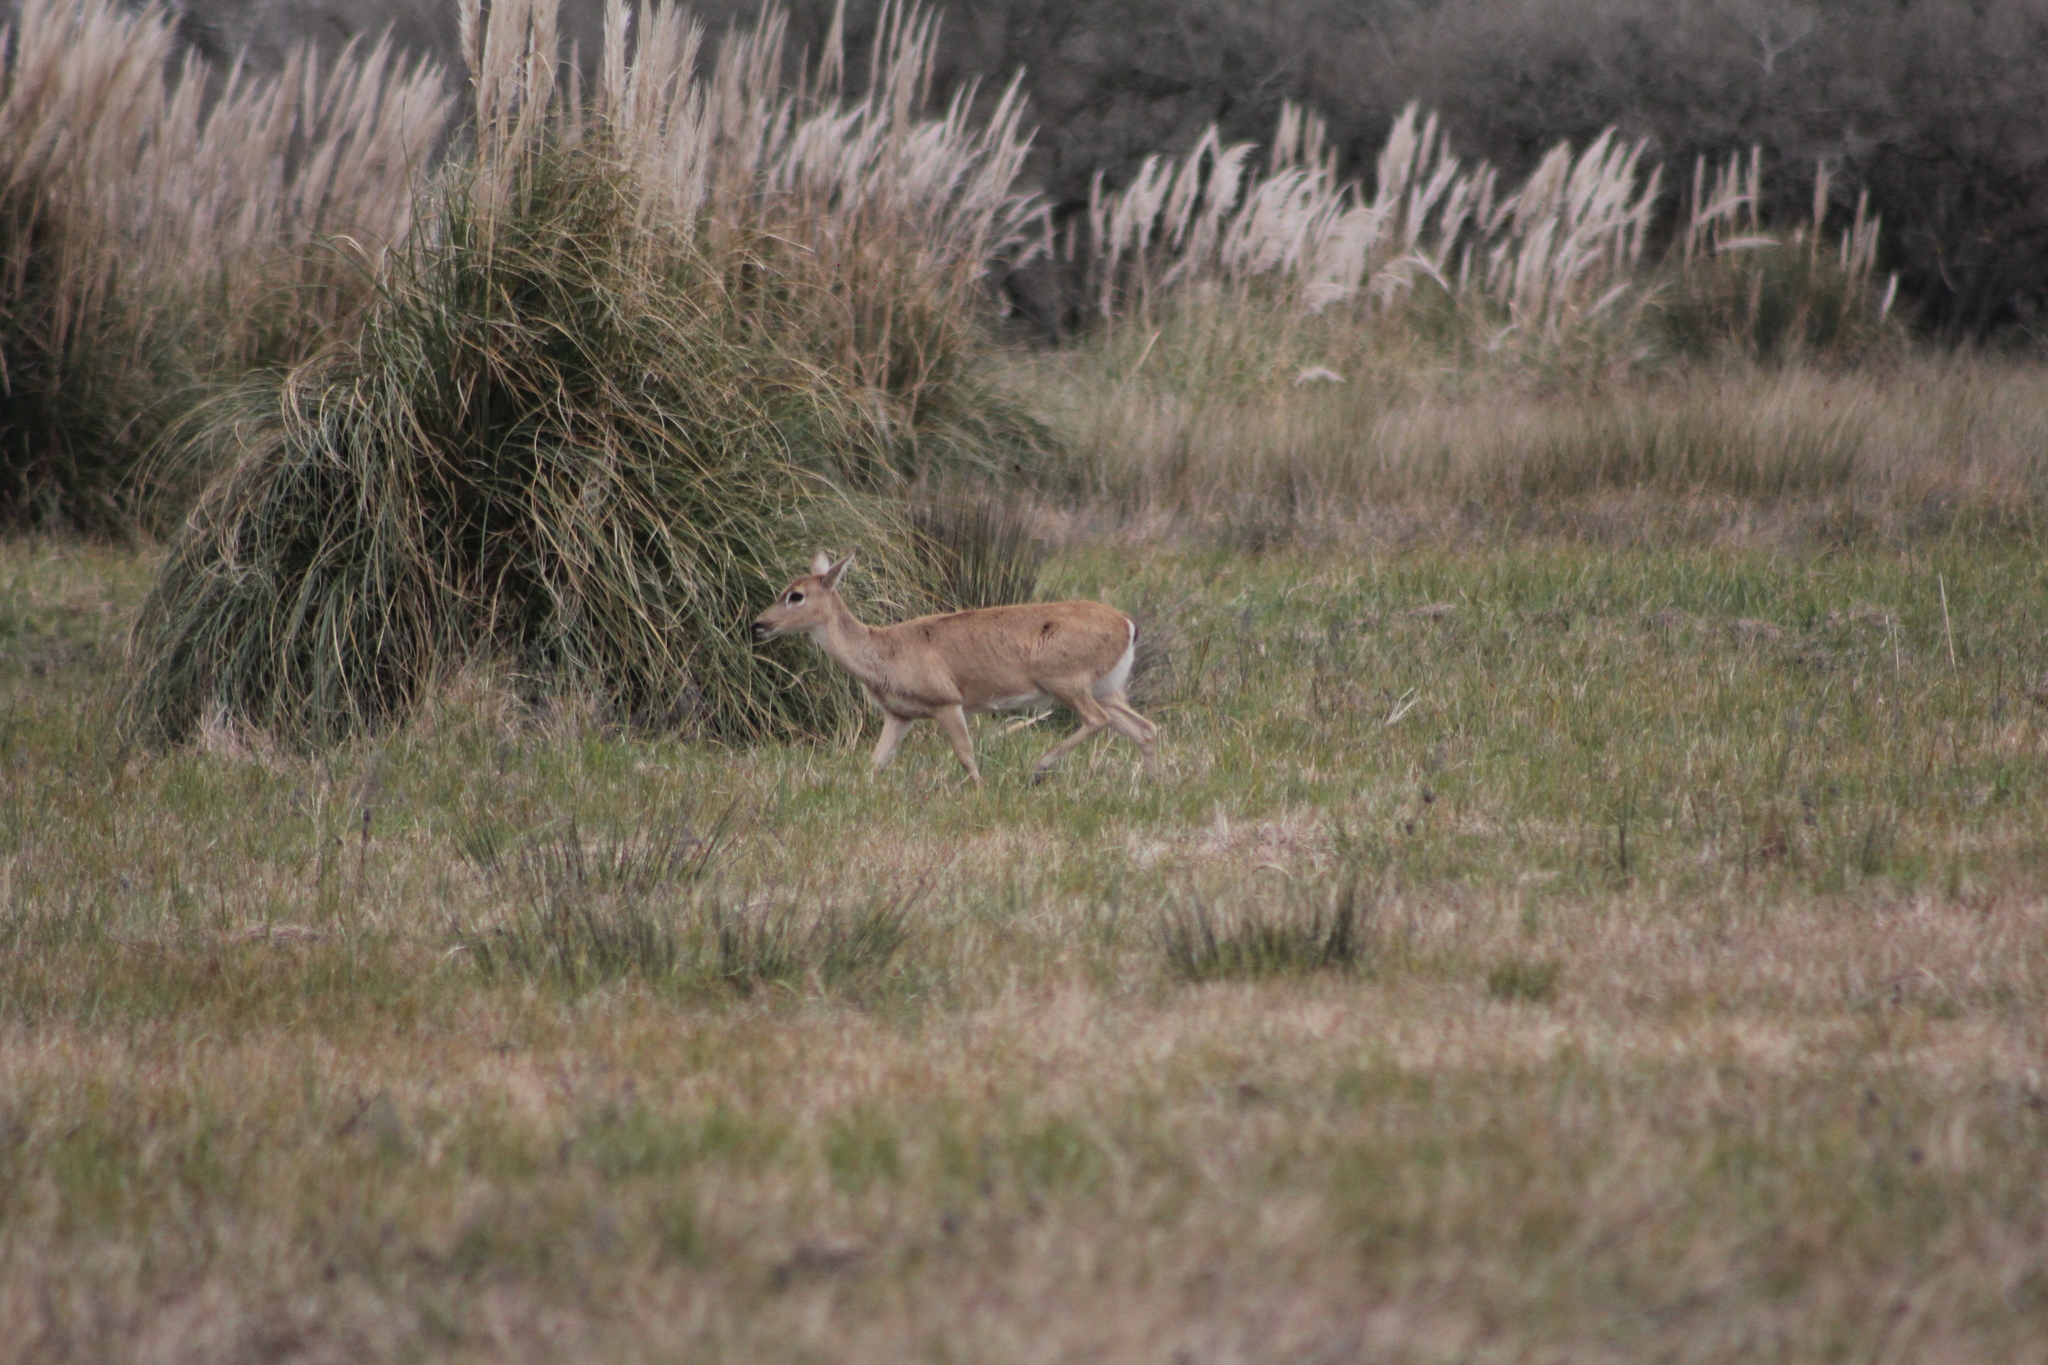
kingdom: Animalia
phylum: Chordata
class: Mammalia
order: Artiodactyla
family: Cervidae
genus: Ozotoceros
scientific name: Ozotoceros bezoarticus
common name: Pampas deer
